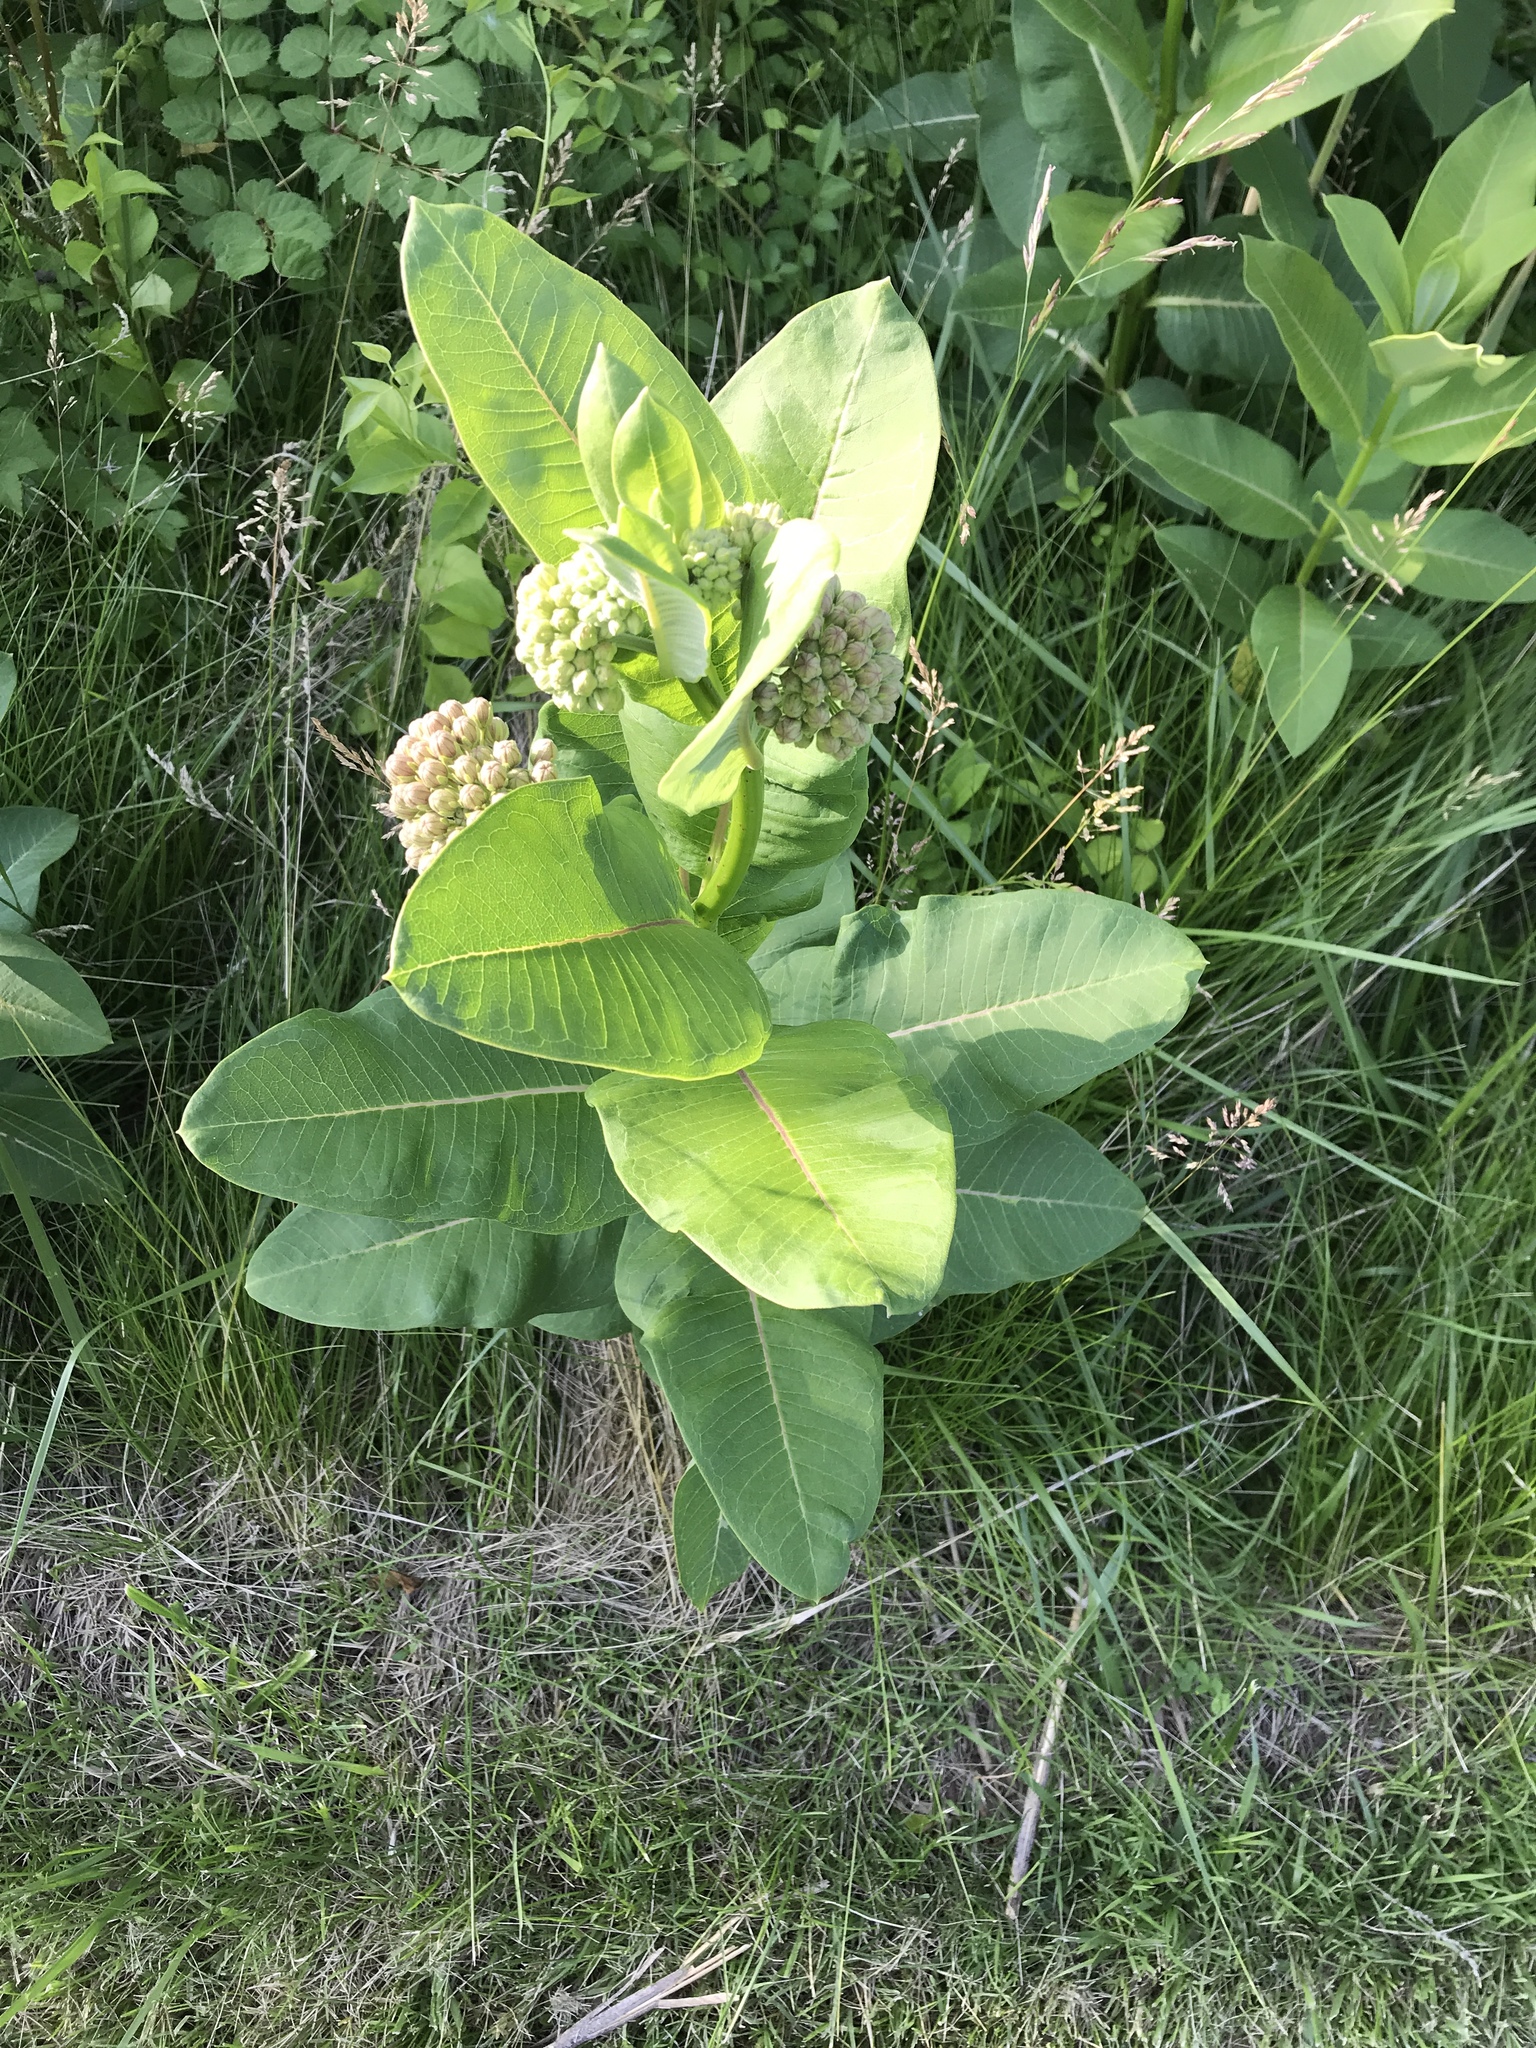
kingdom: Plantae
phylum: Tracheophyta
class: Magnoliopsida
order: Gentianales
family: Apocynaceae
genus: Asclepias
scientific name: Asclepias syriaca
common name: Common milkweed
